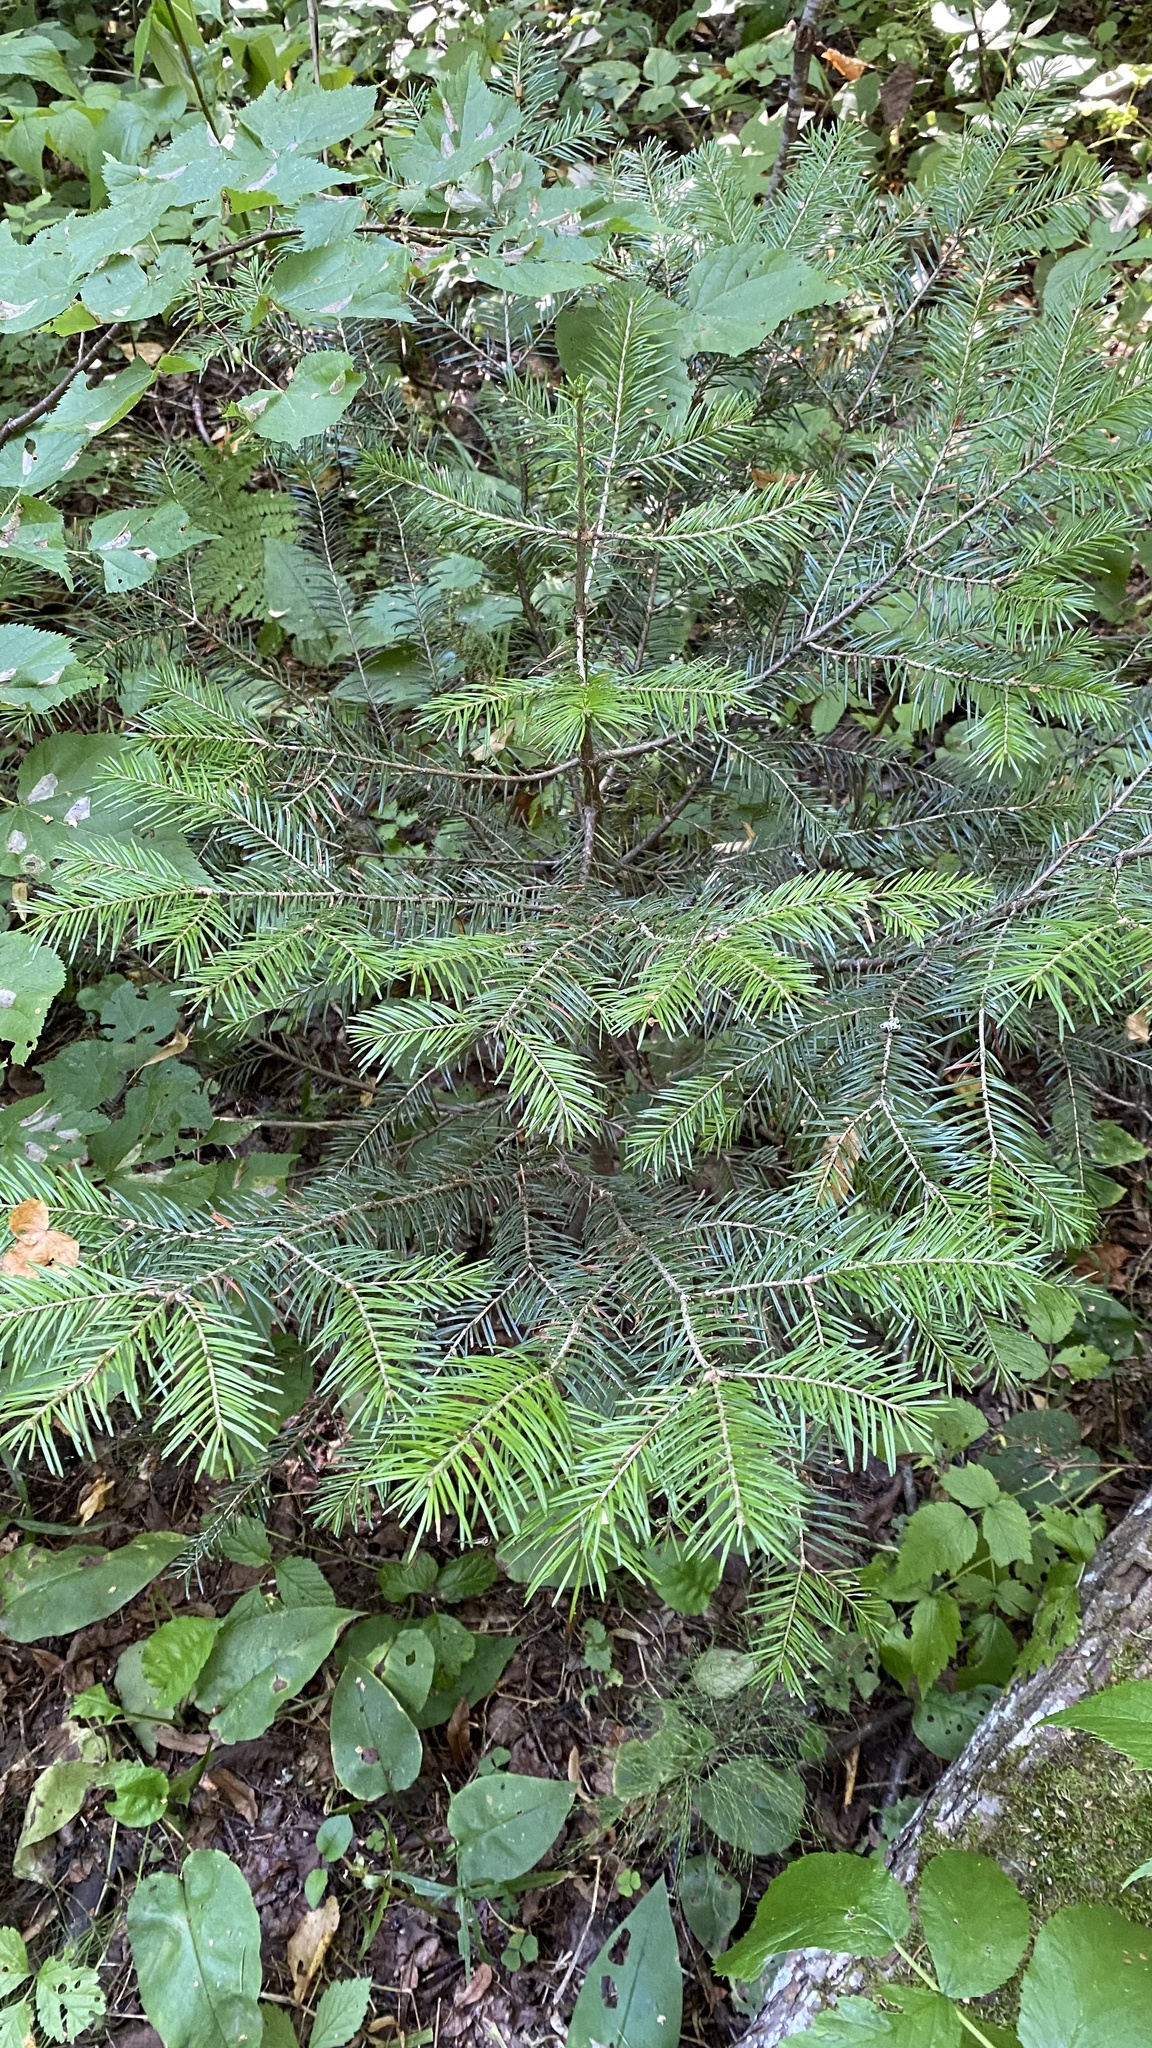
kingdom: Plantae
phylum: Tracheophyta
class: Pinopsida
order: Pinales
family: Pinaceae
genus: Abies
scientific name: Abies sibirica
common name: Siberian fir
